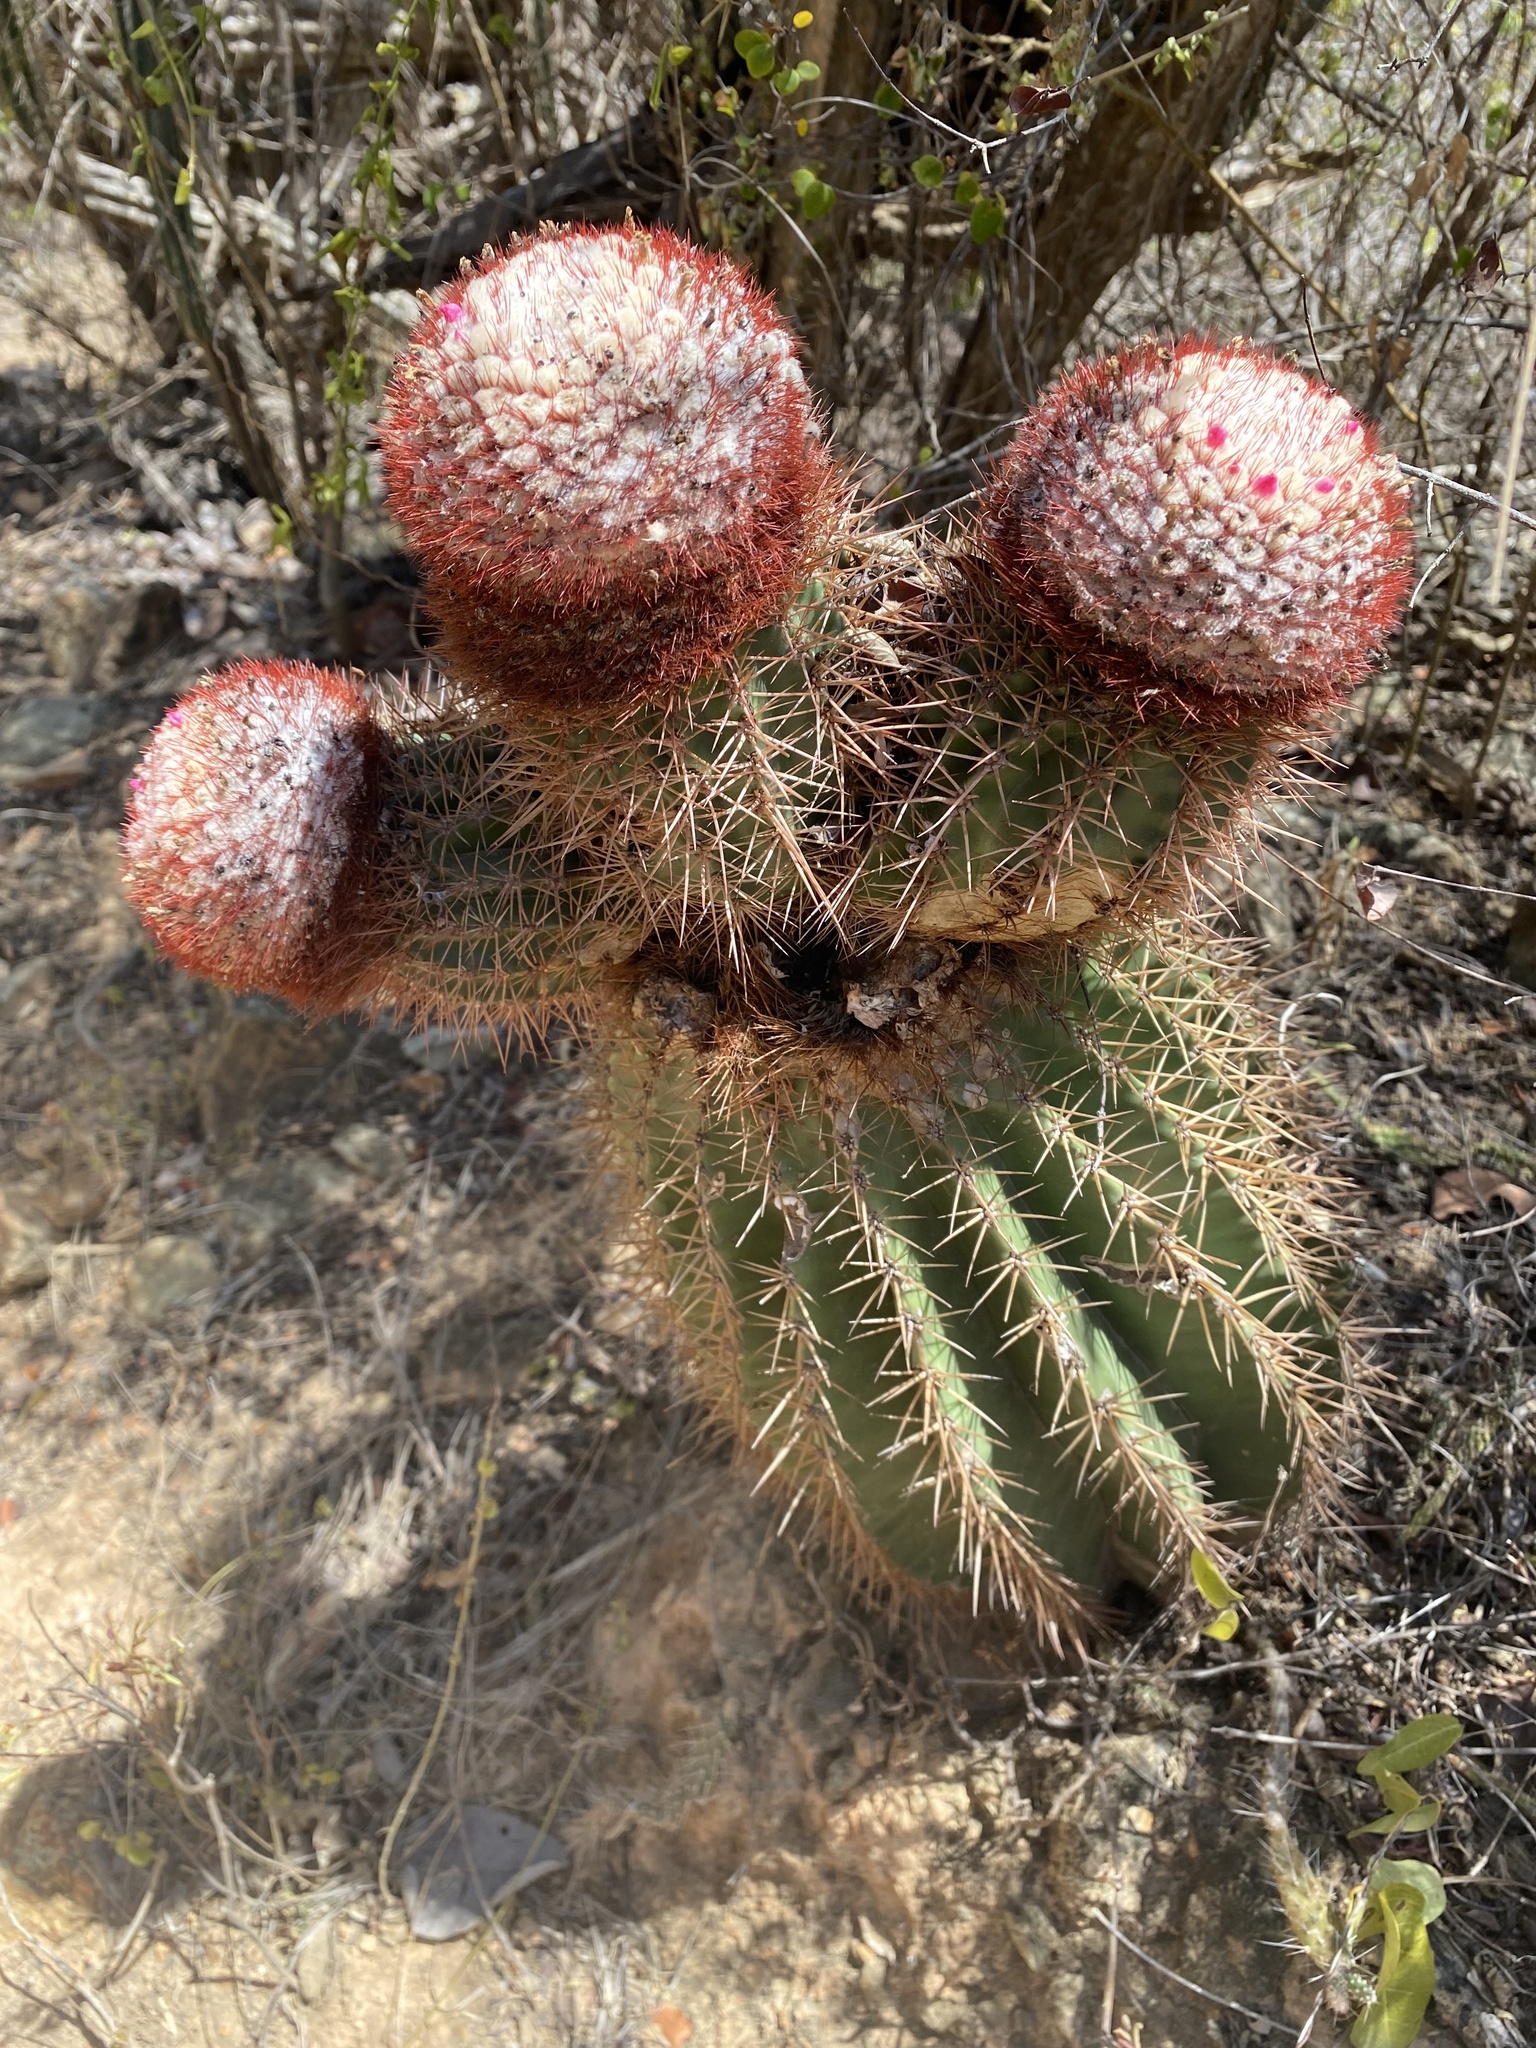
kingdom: Plantae
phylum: Tracheophyta
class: Magnoliopsida
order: Caryophyllales
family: Cactaceae
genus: Melocactus
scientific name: Melocactus intortus
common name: Barrel cactus
